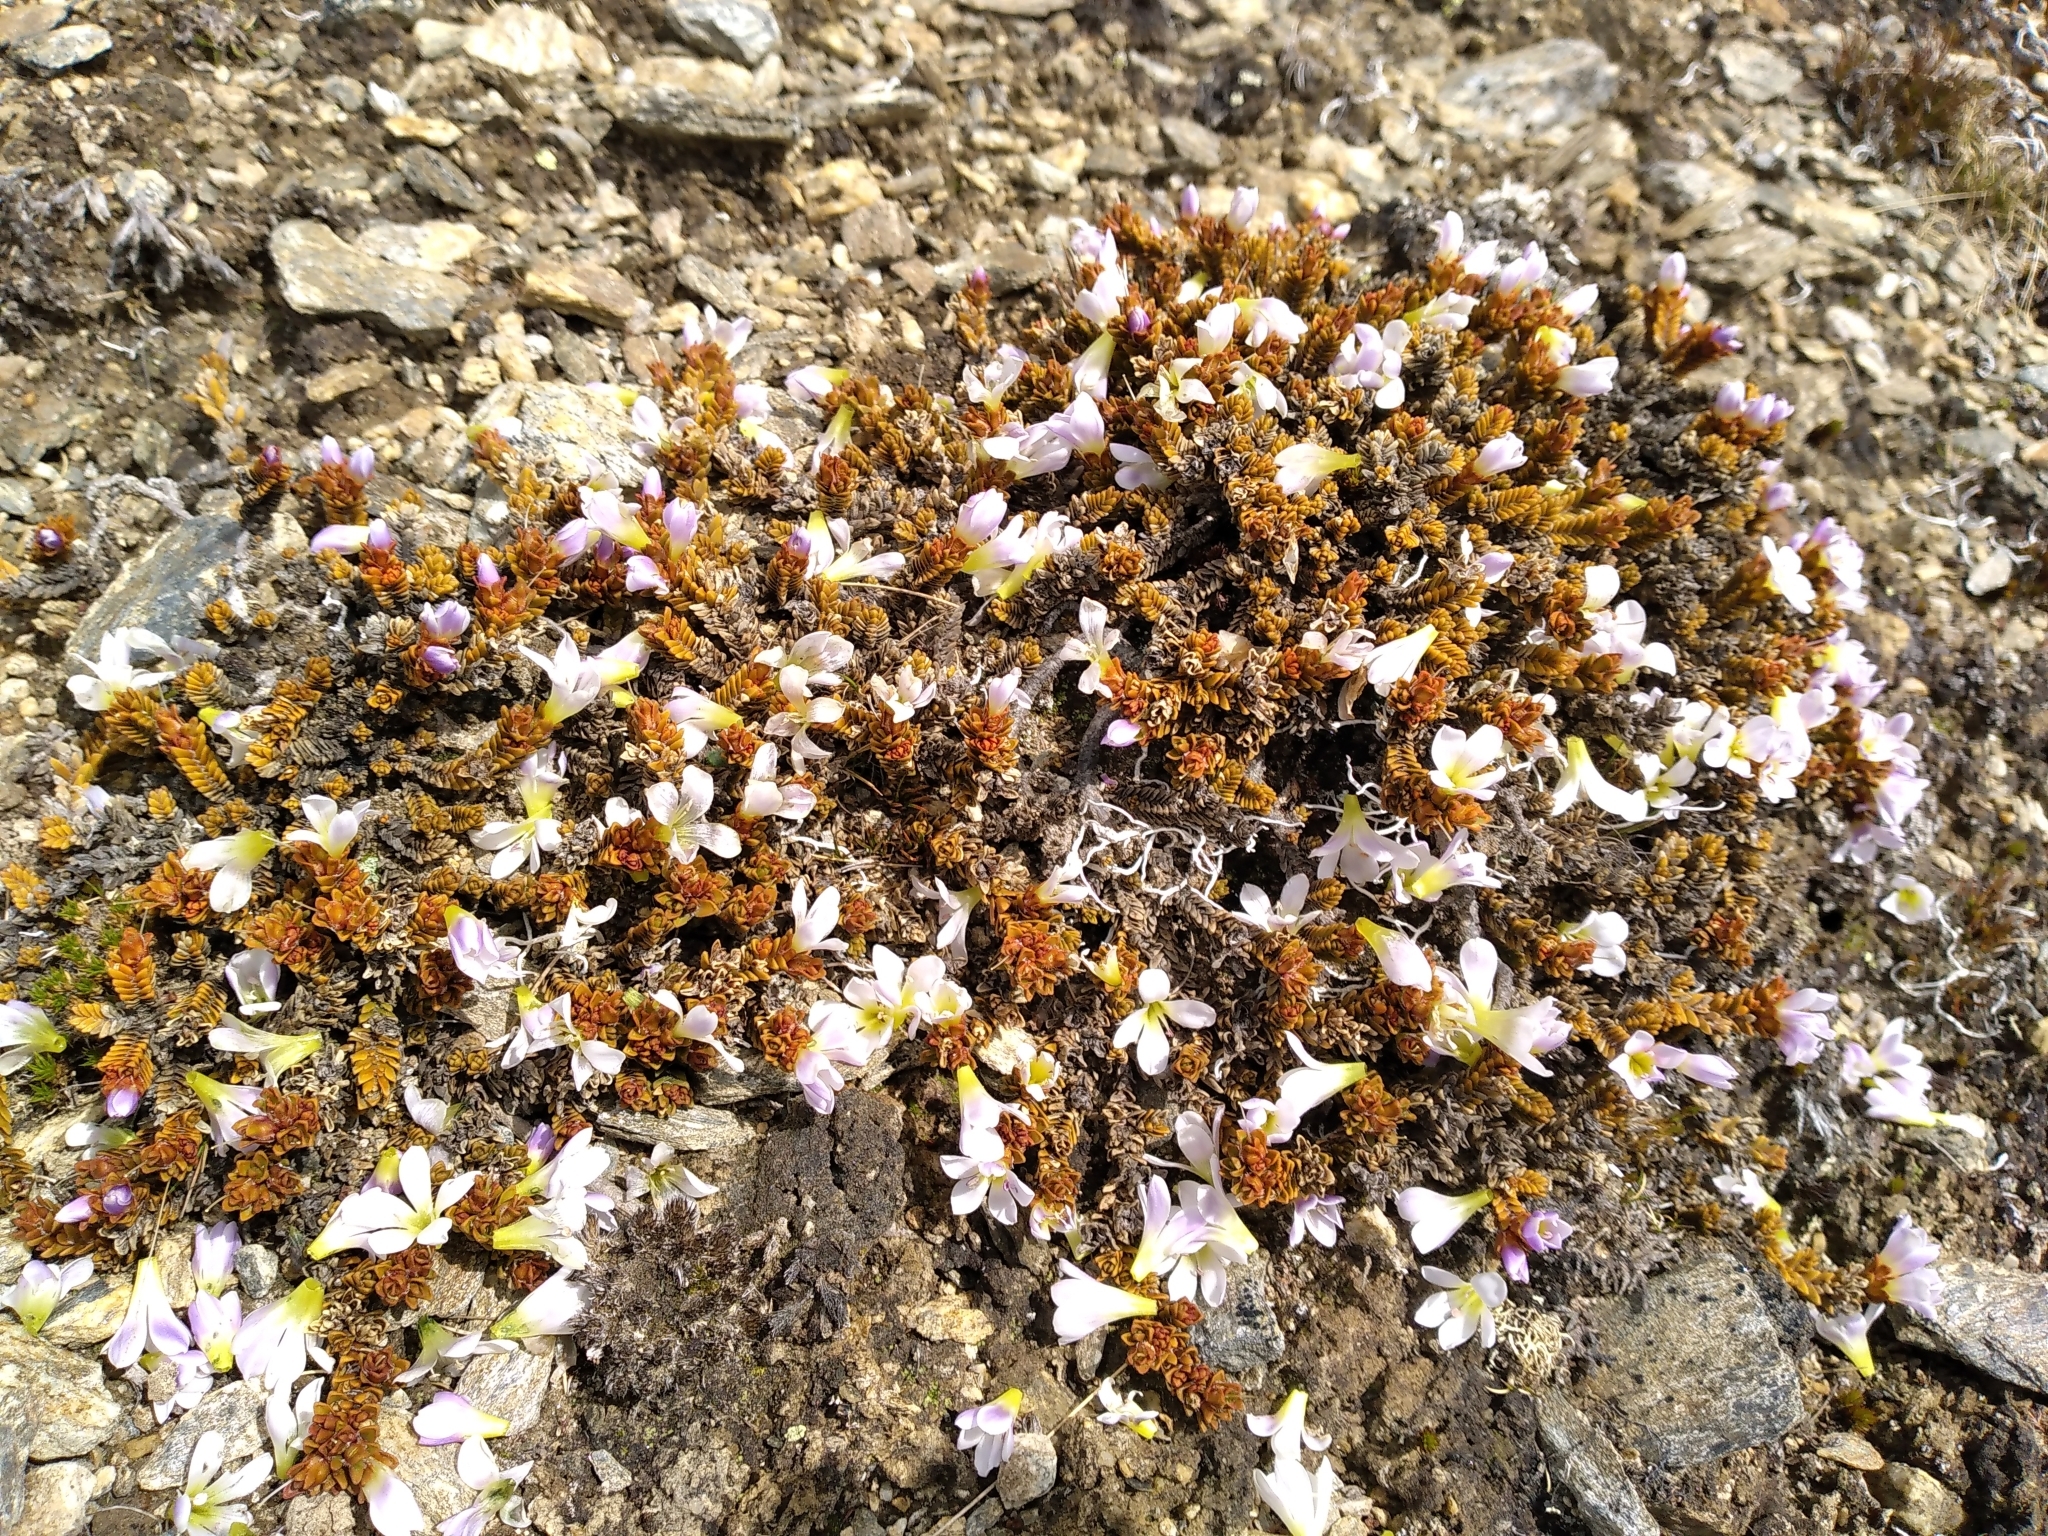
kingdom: Plantae
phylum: Tracheophyta
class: Magnoliopsida
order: Lamiales
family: Plantaginaceae
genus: Veronica
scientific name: Veronica densifolia
